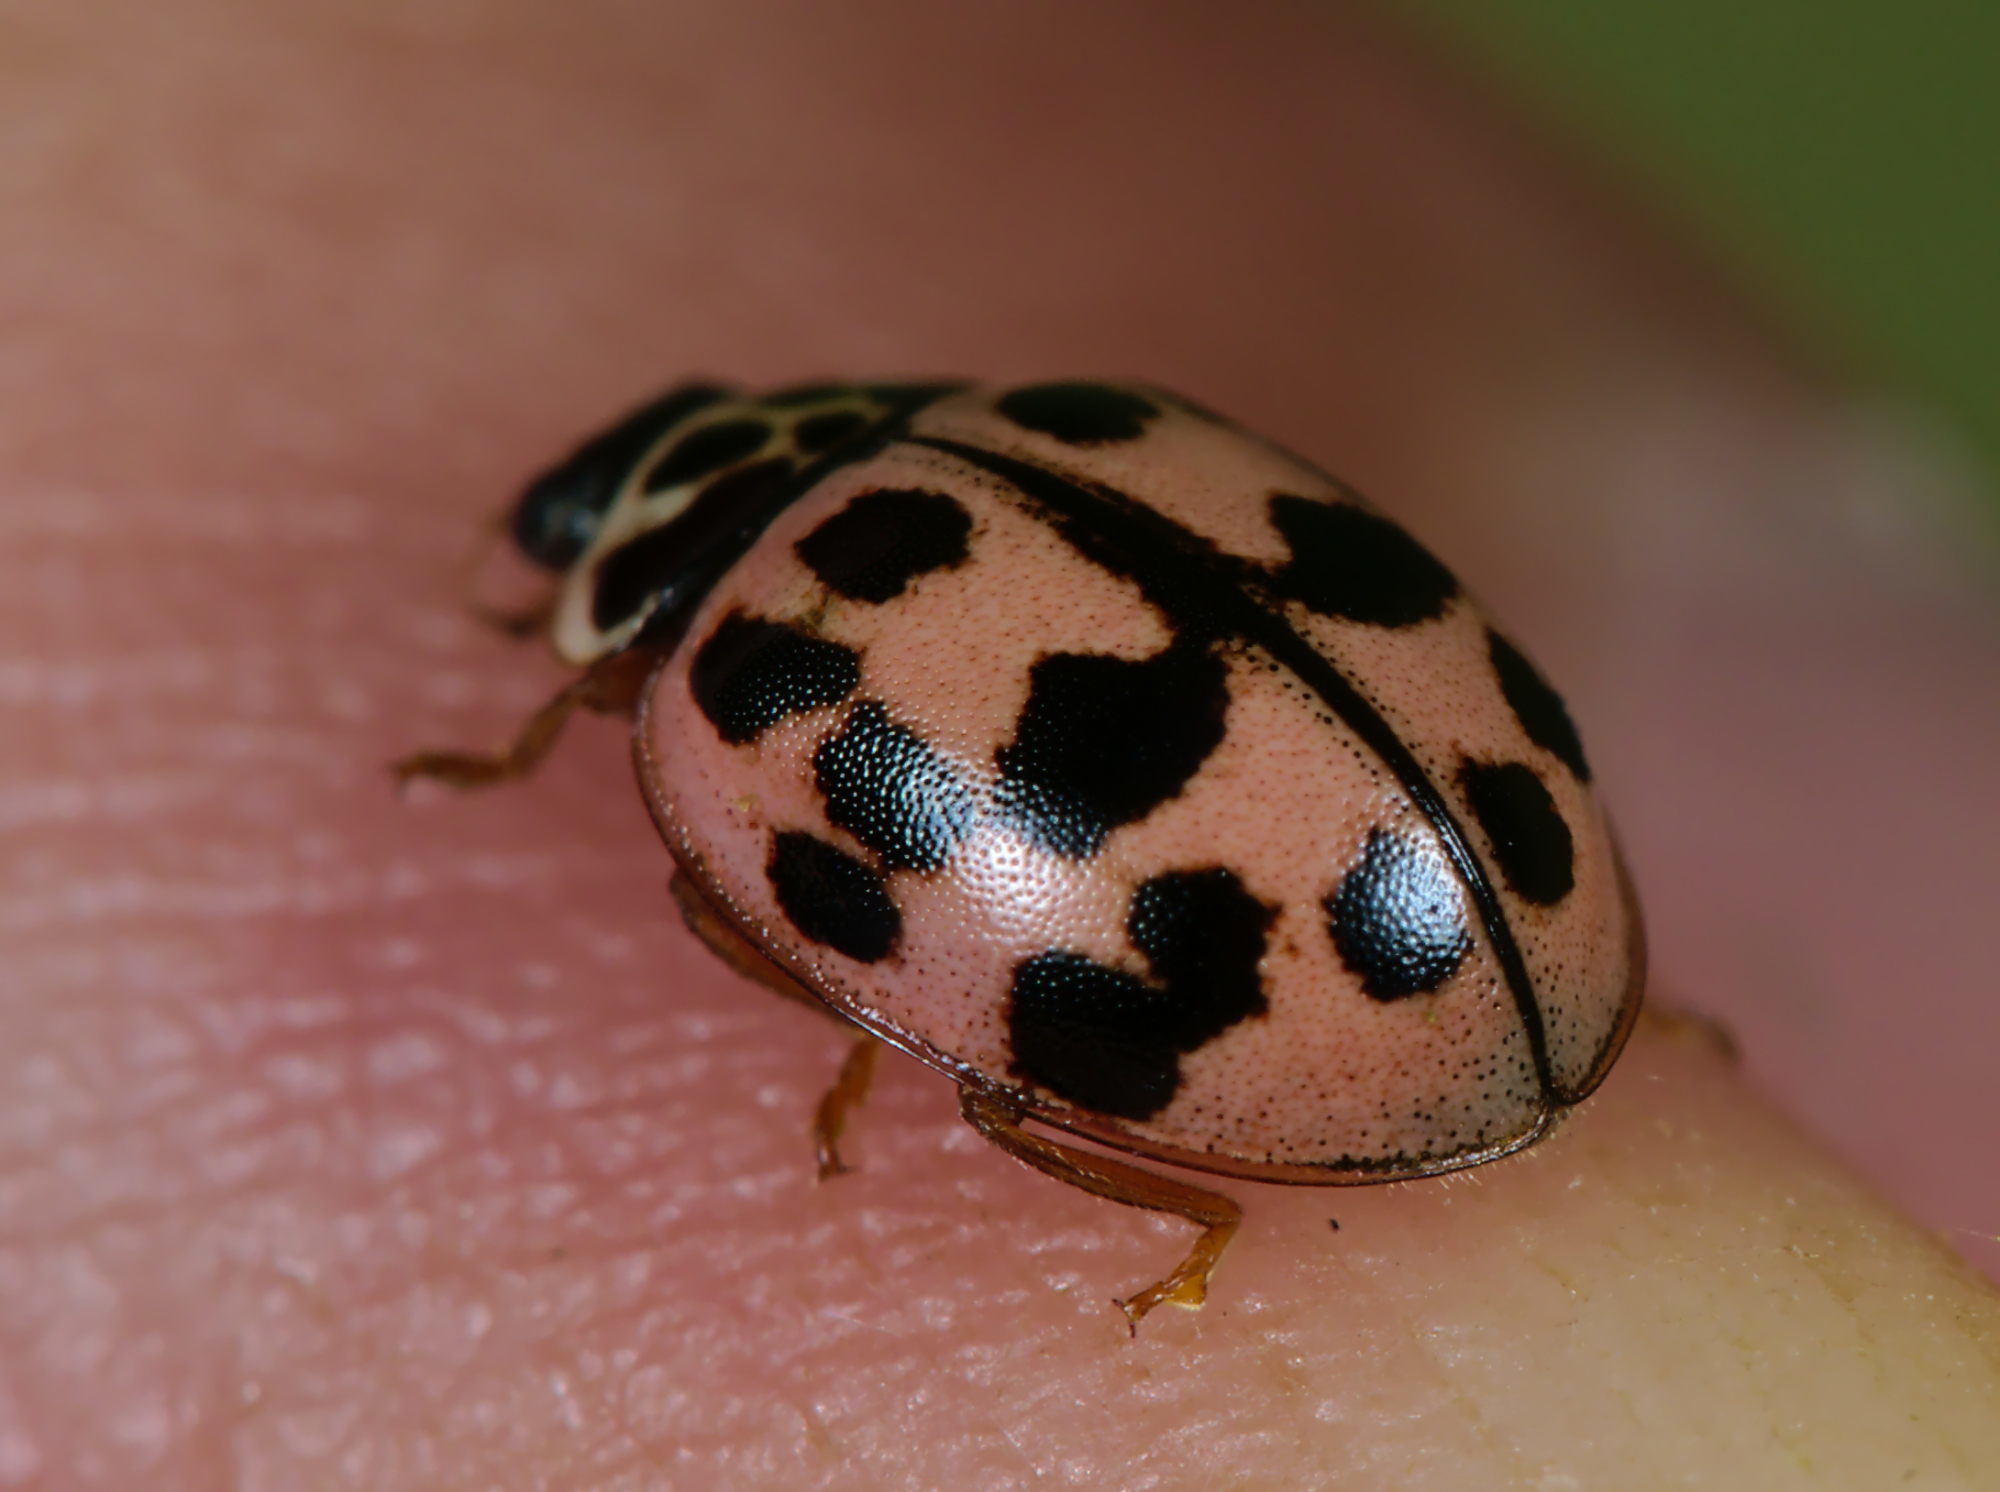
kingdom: Animalia
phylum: Arthropoda
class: Insecta
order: Coleoptera
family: Coccinellidae
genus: Oenopia
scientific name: Oenopia conglobata
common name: Ladybird beetle
